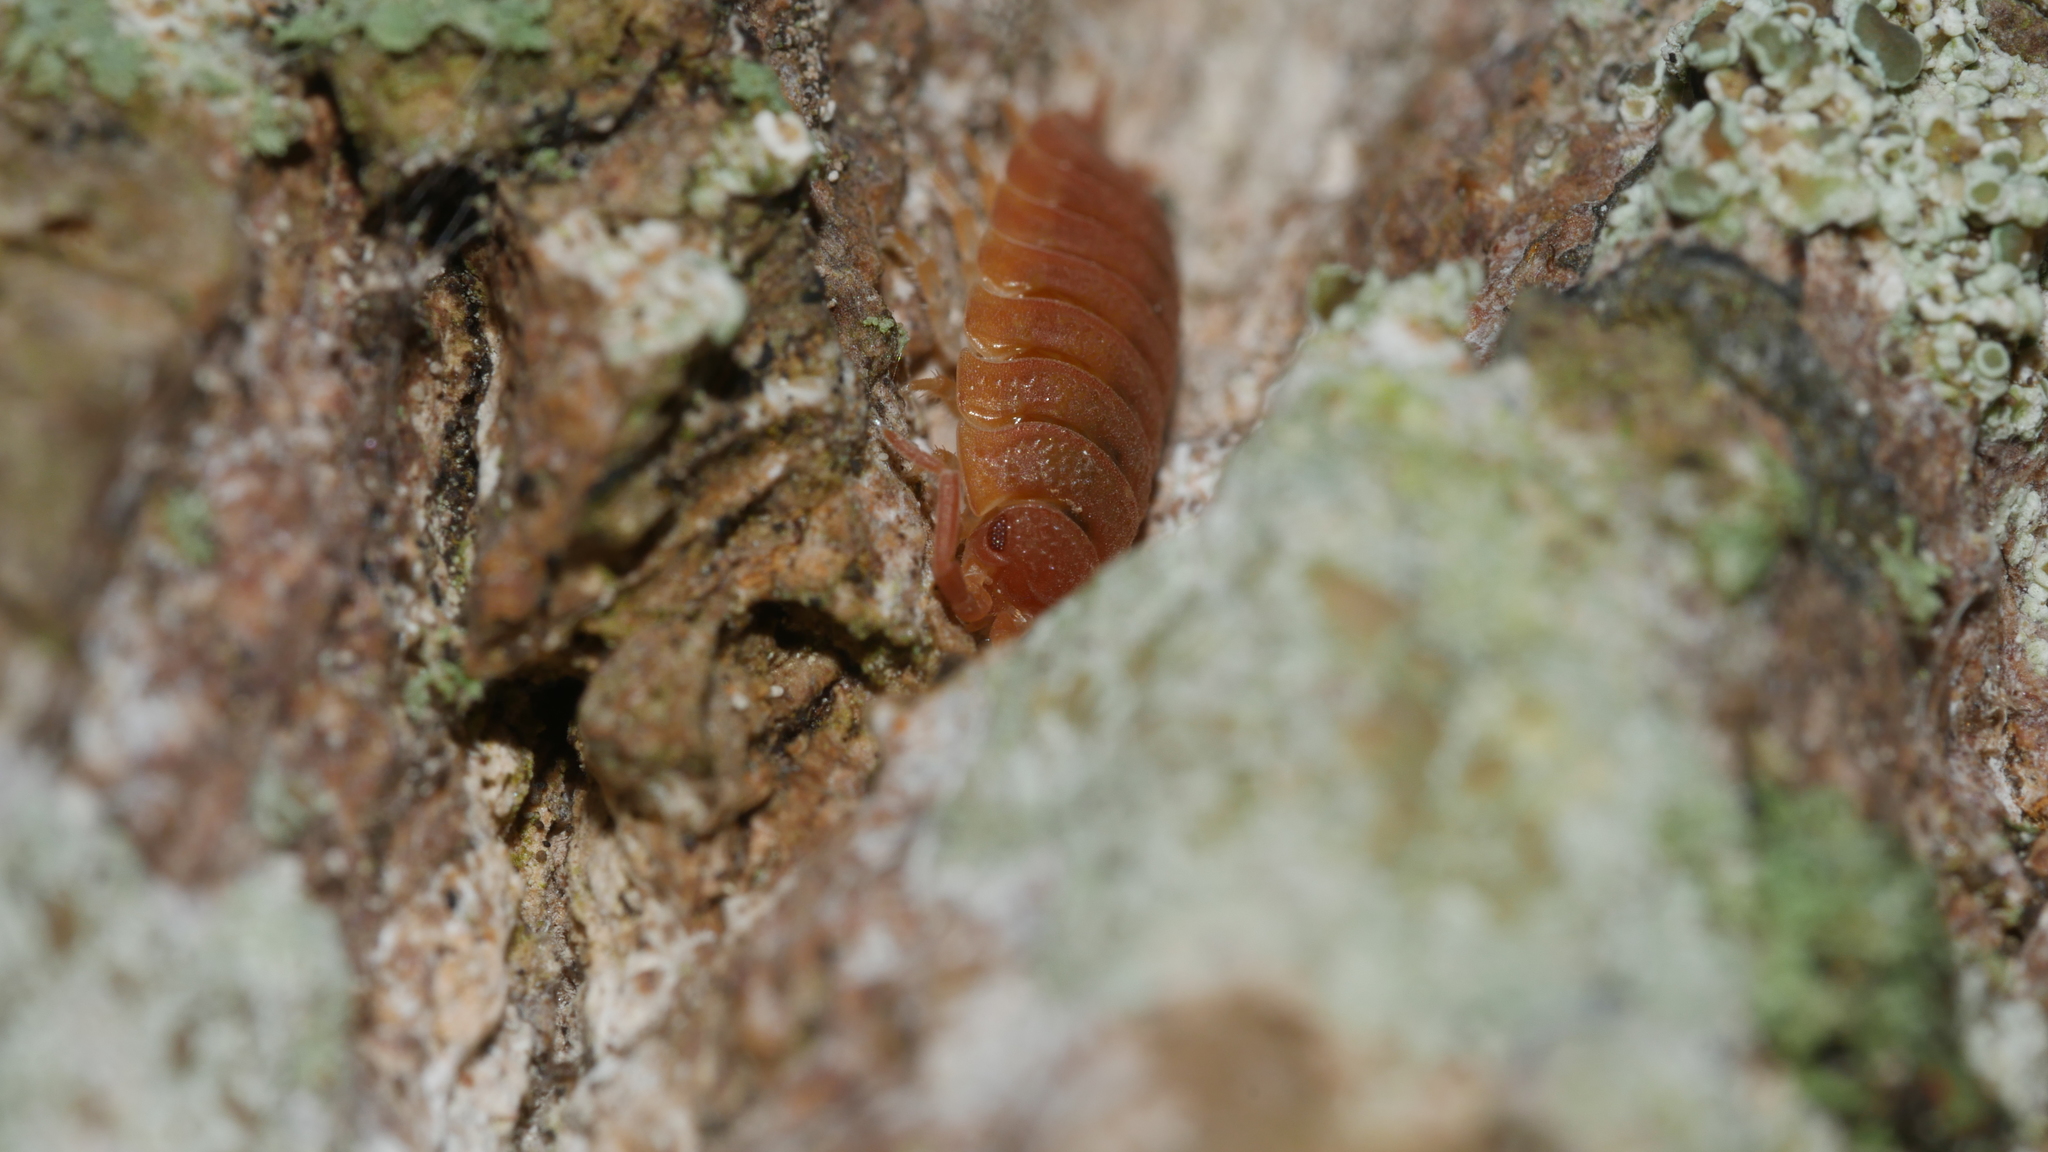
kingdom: Animalia
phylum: Arthropoda
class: Malacostraca
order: Isopoda
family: Porcellionidae
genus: Porcellio
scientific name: Porcellio scaber
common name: Common rough woodlouse
